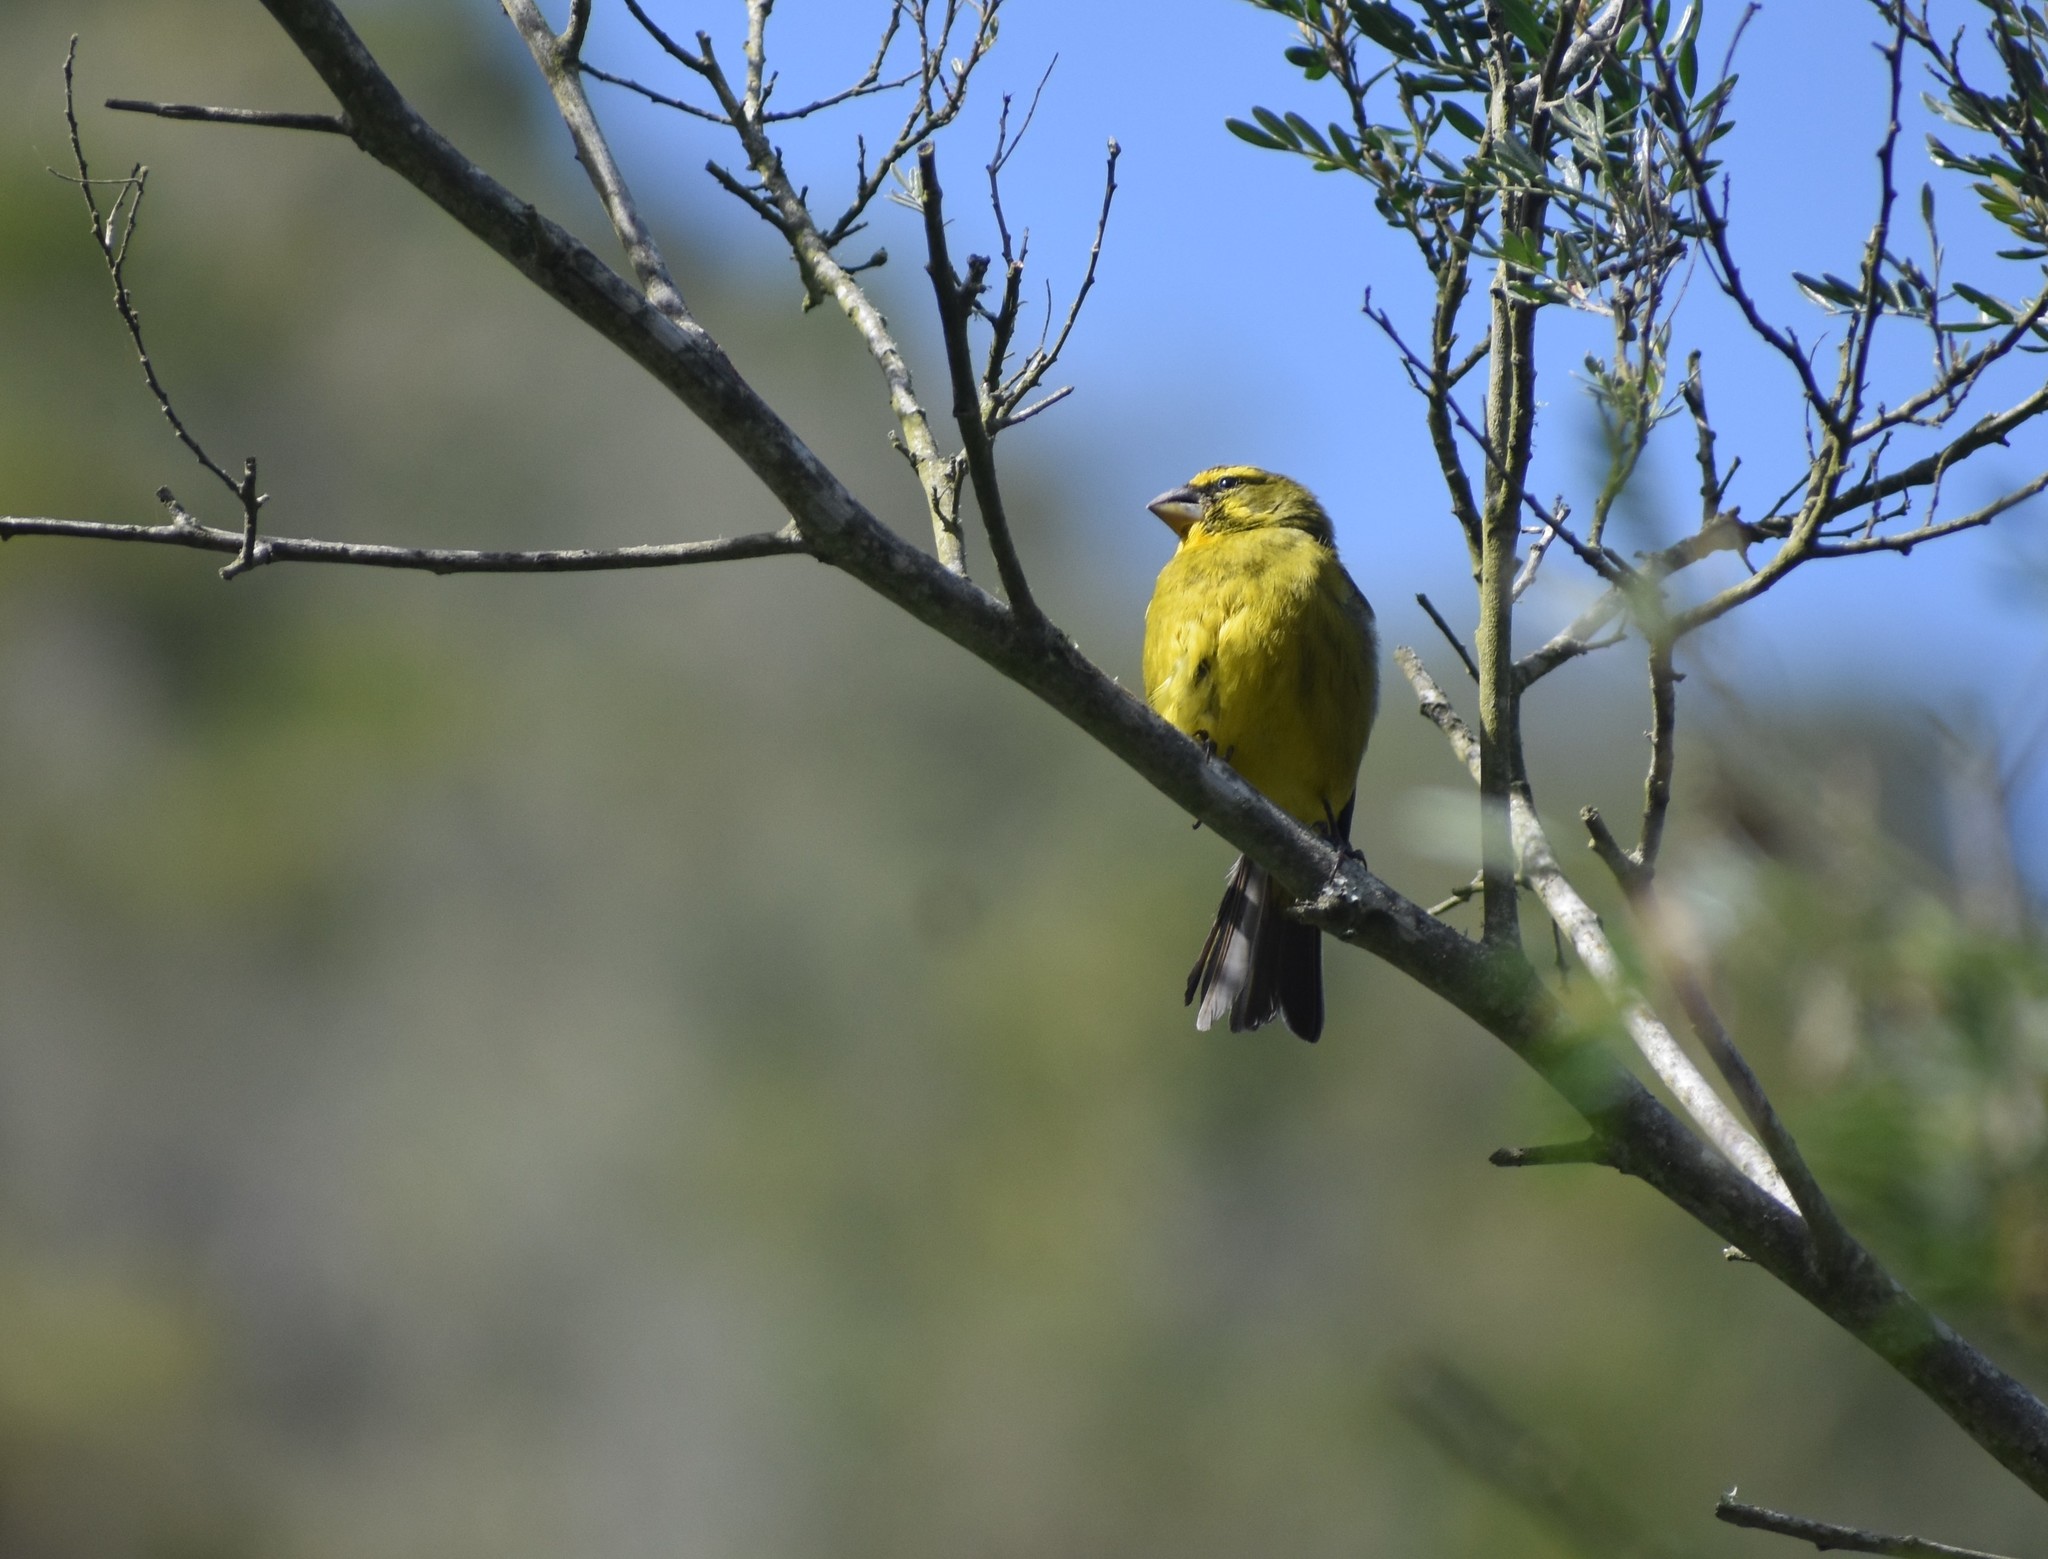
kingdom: Animalia
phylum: Chordata
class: Aves
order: Passeriformes
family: Fringillidae
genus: Crithagra
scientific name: Crithagra sulphurata
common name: Brimstone canary
